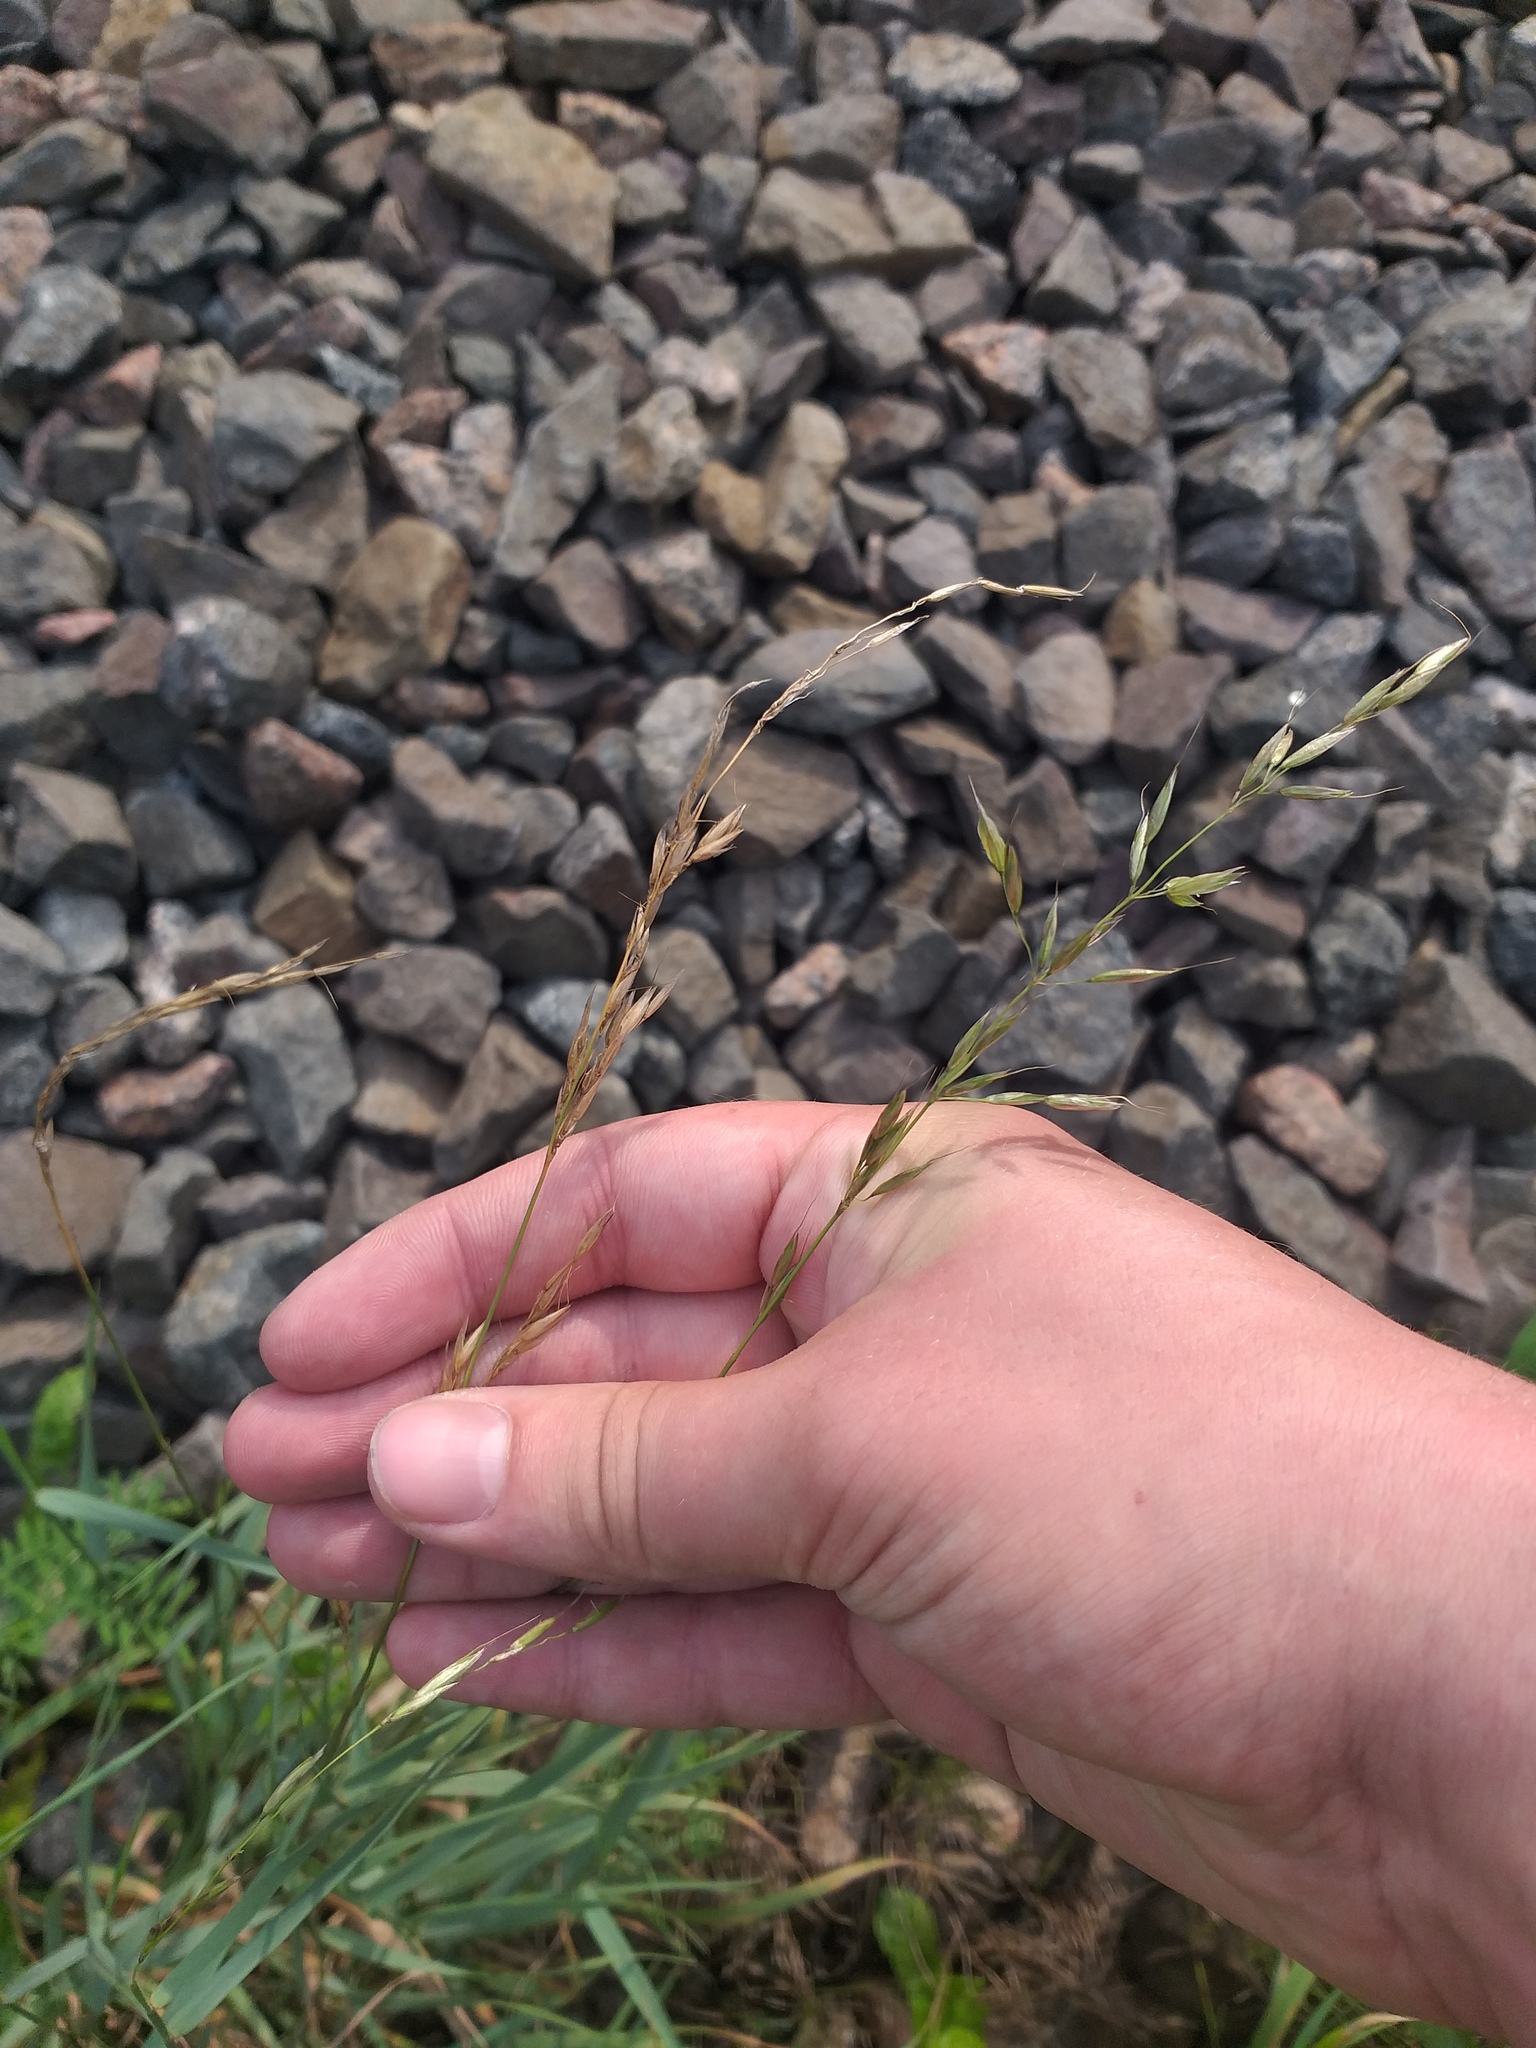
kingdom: Plantae
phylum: Tracheophyta
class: Liliopsida
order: Poales
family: Poaceae
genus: Arrhenatherum
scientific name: Arrhenatherum elatius
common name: Tall oatgrass
